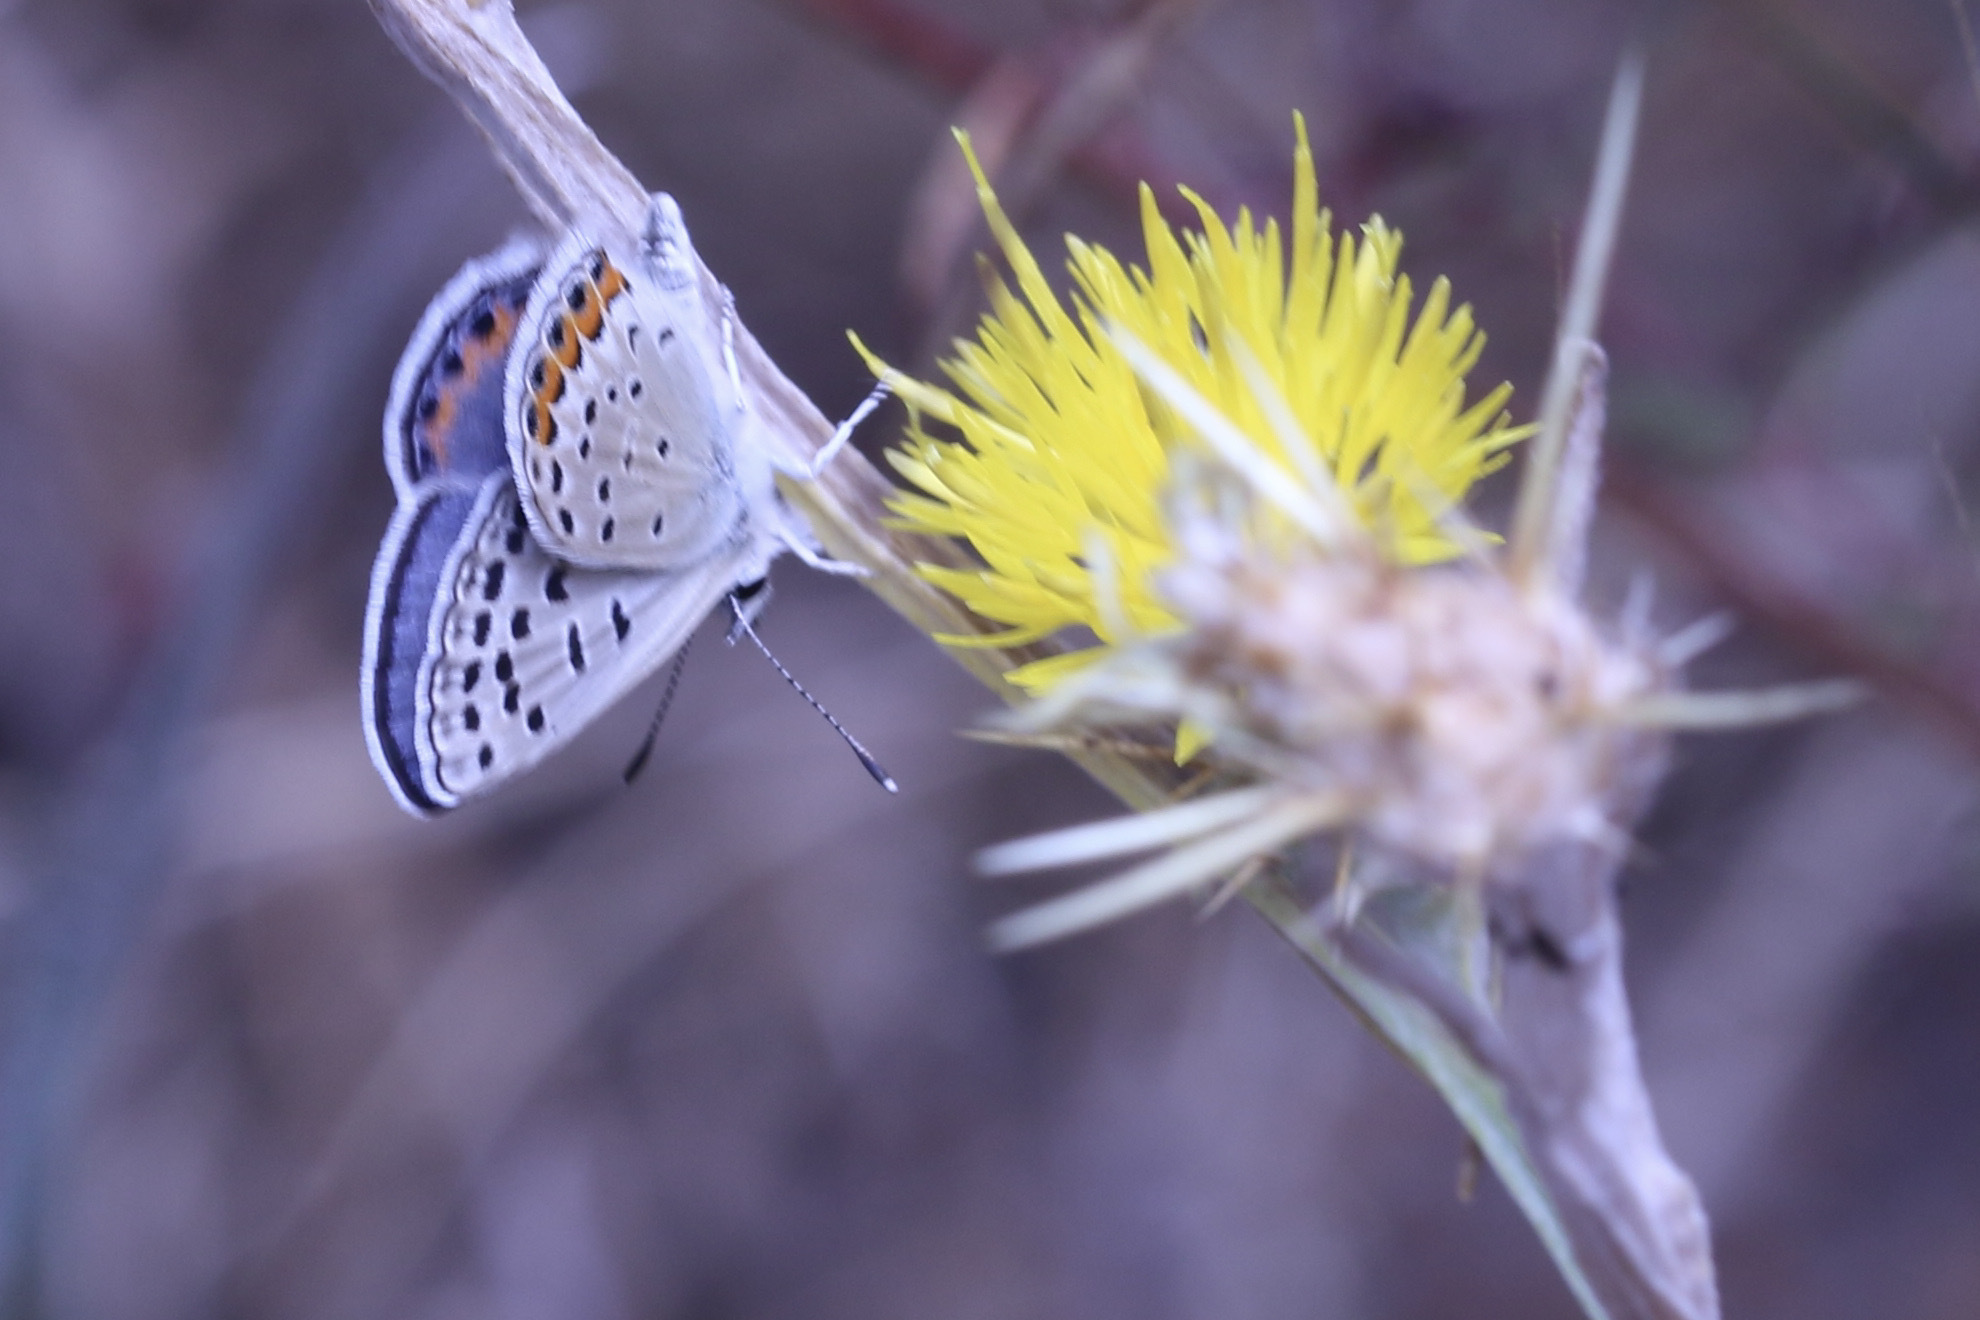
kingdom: Animalia
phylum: Arthropoda
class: Insecta
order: Lepidoptera
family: Lycaenidae
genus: Icaricia
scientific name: Icaricia acmon
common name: Acmon blue
